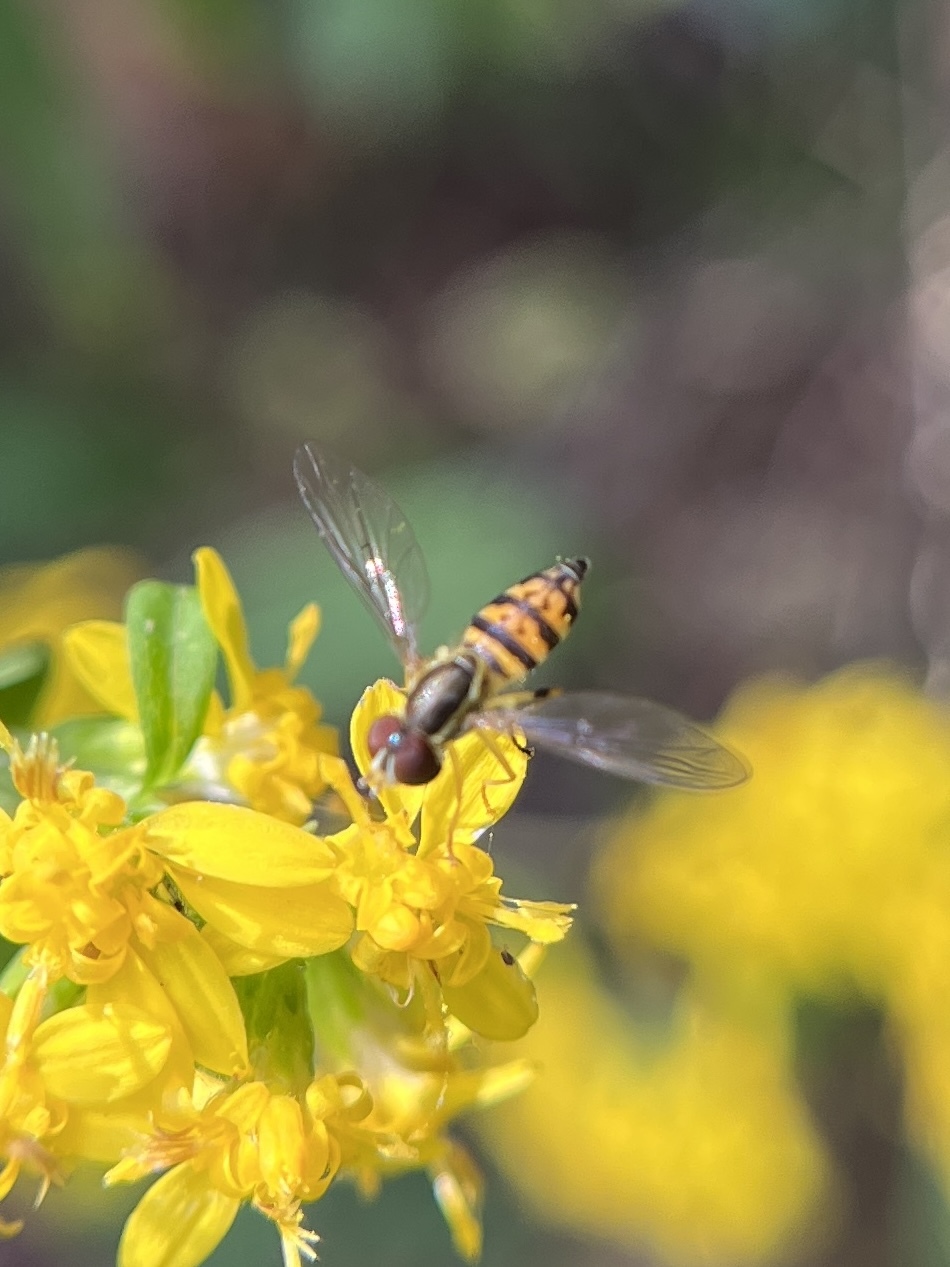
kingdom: Animalia
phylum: Arthropoda
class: Insecta
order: Diptera
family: Syrphidae
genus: Toxomerus
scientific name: Toxomerus geminatus
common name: Eastern calligrapher
